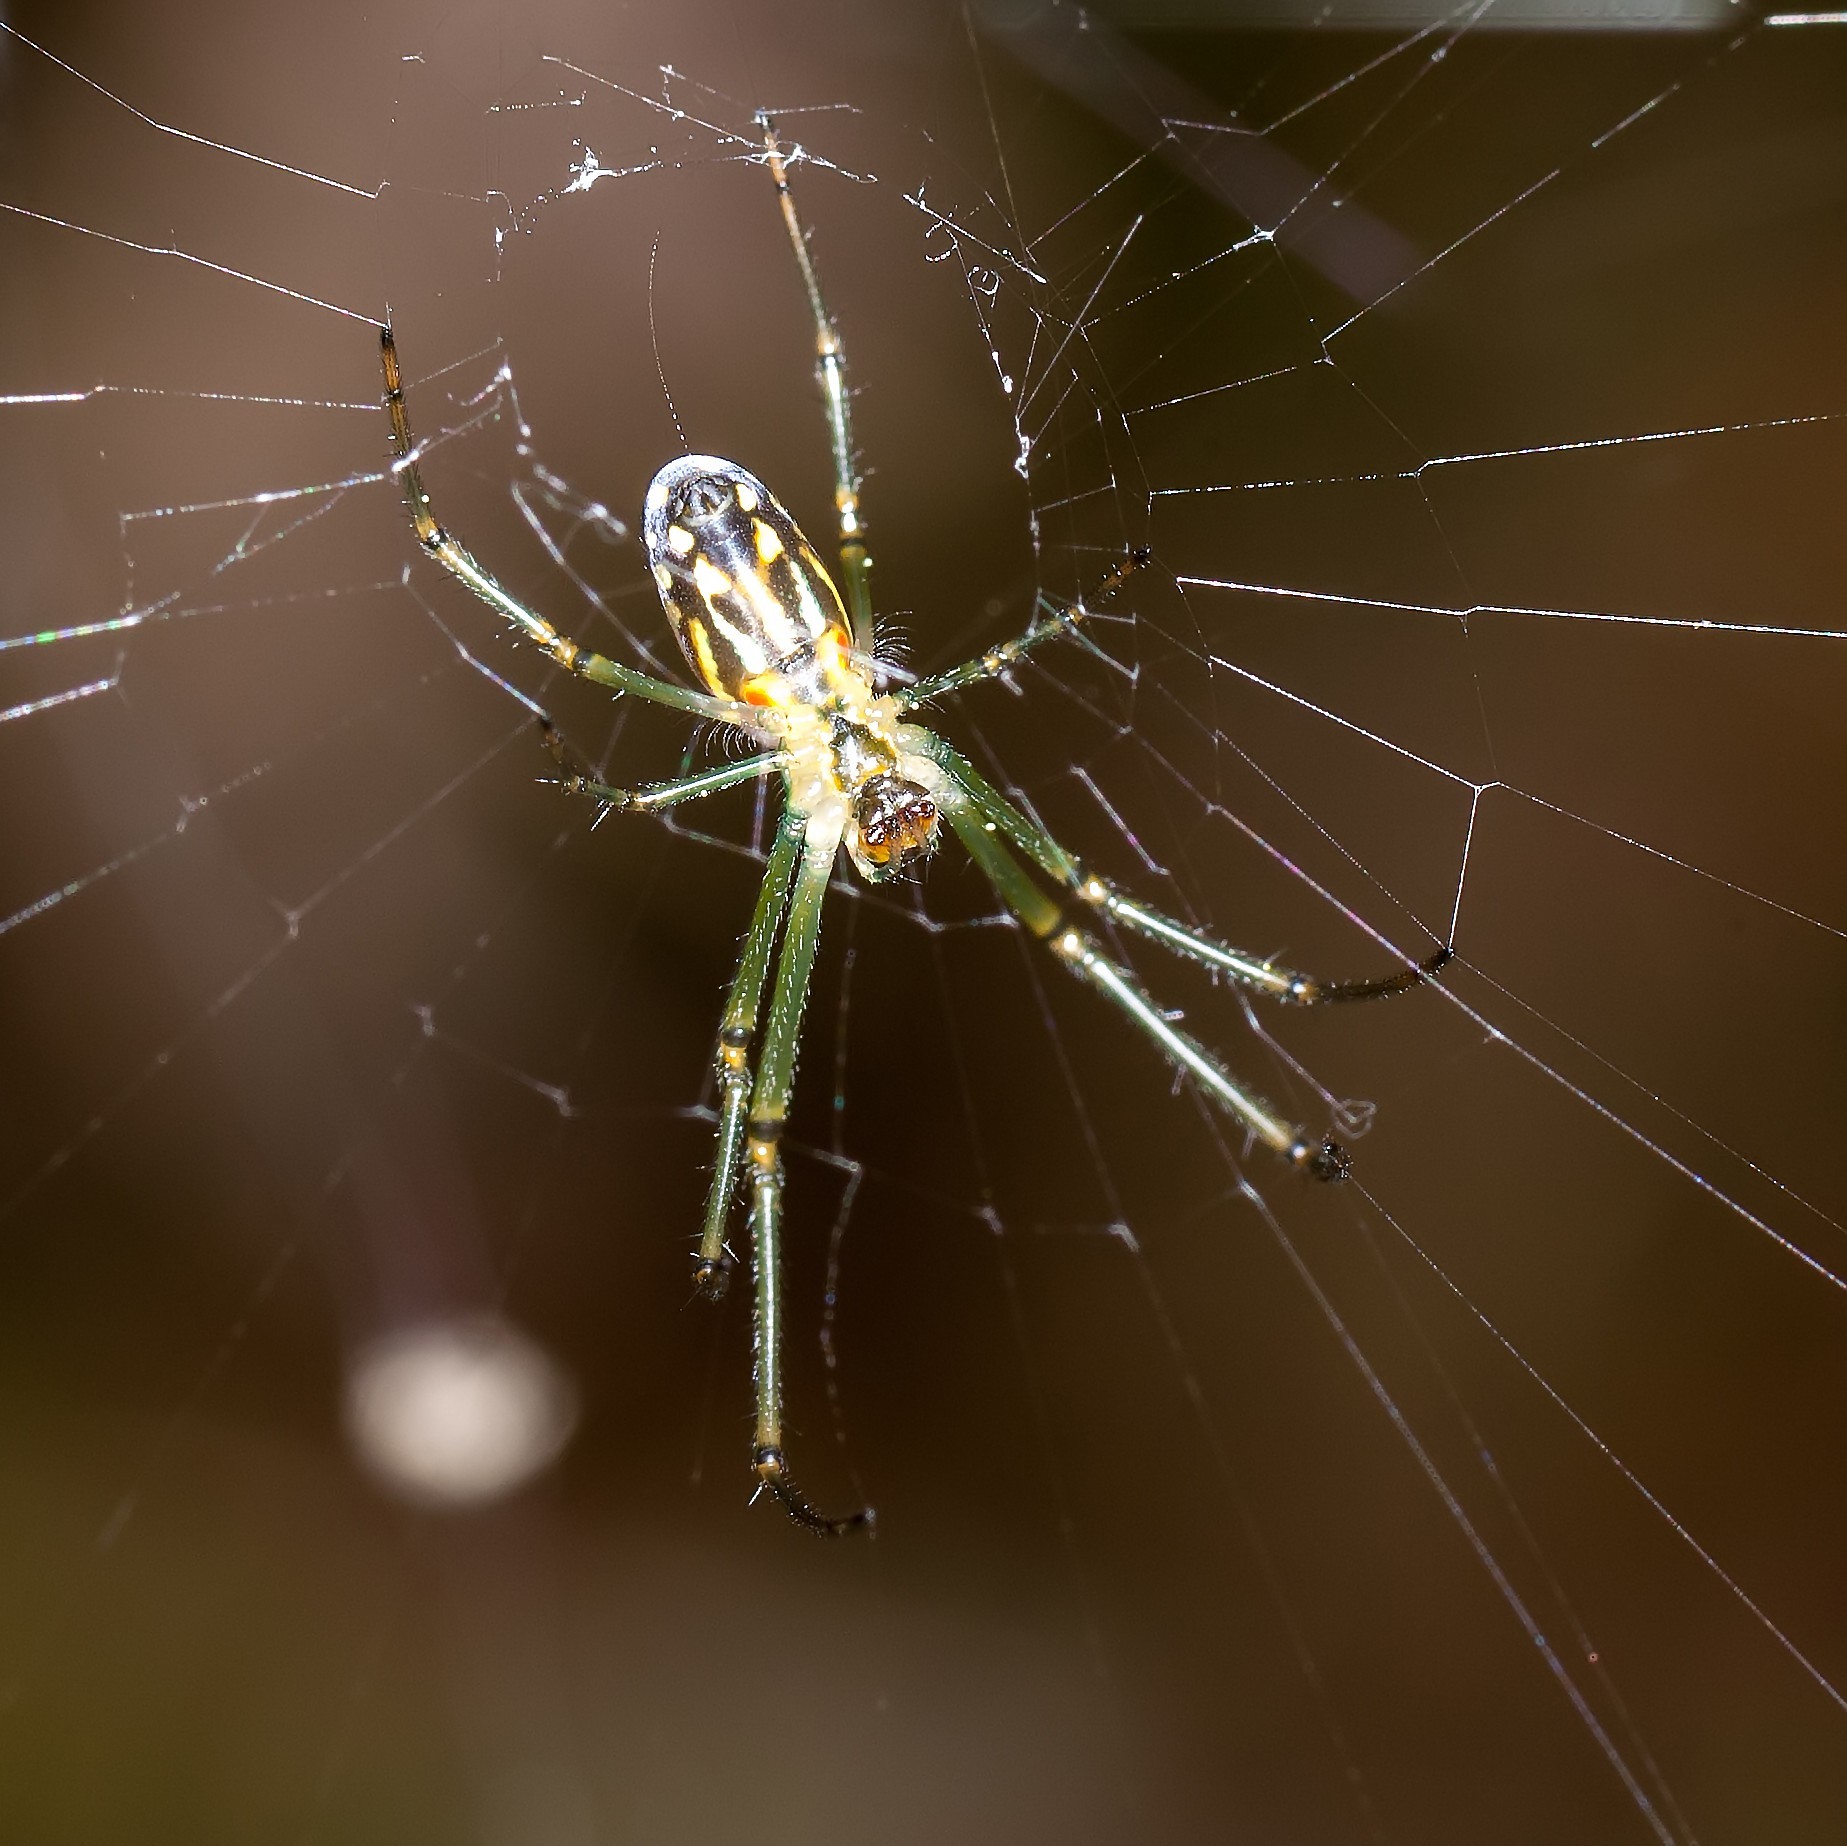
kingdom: Animalia
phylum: Arthropoda
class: Arachnida
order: Araneae
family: Tetragnathidae
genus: Leucauge
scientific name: Leucauge argyra
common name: Longjawed orb weavers
